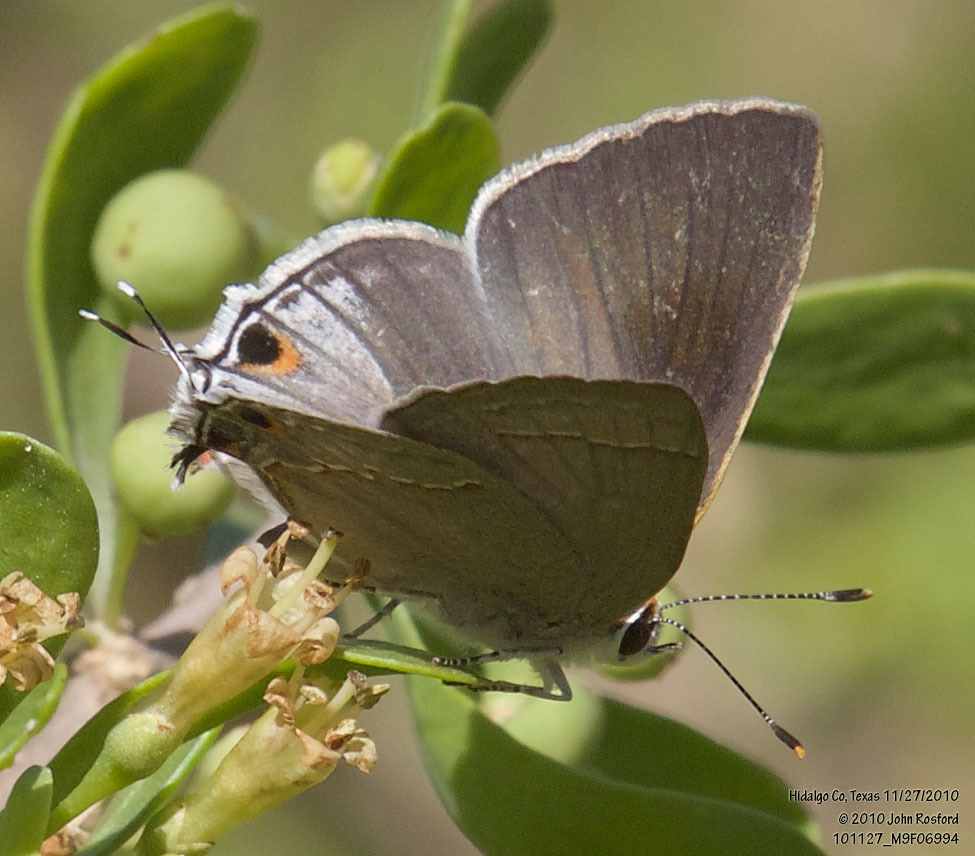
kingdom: Animalia
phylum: Arthropoda
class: Insecta
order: Lepidoptera
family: Lycaenidae
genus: Thecla
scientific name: Thecla bebrycia
